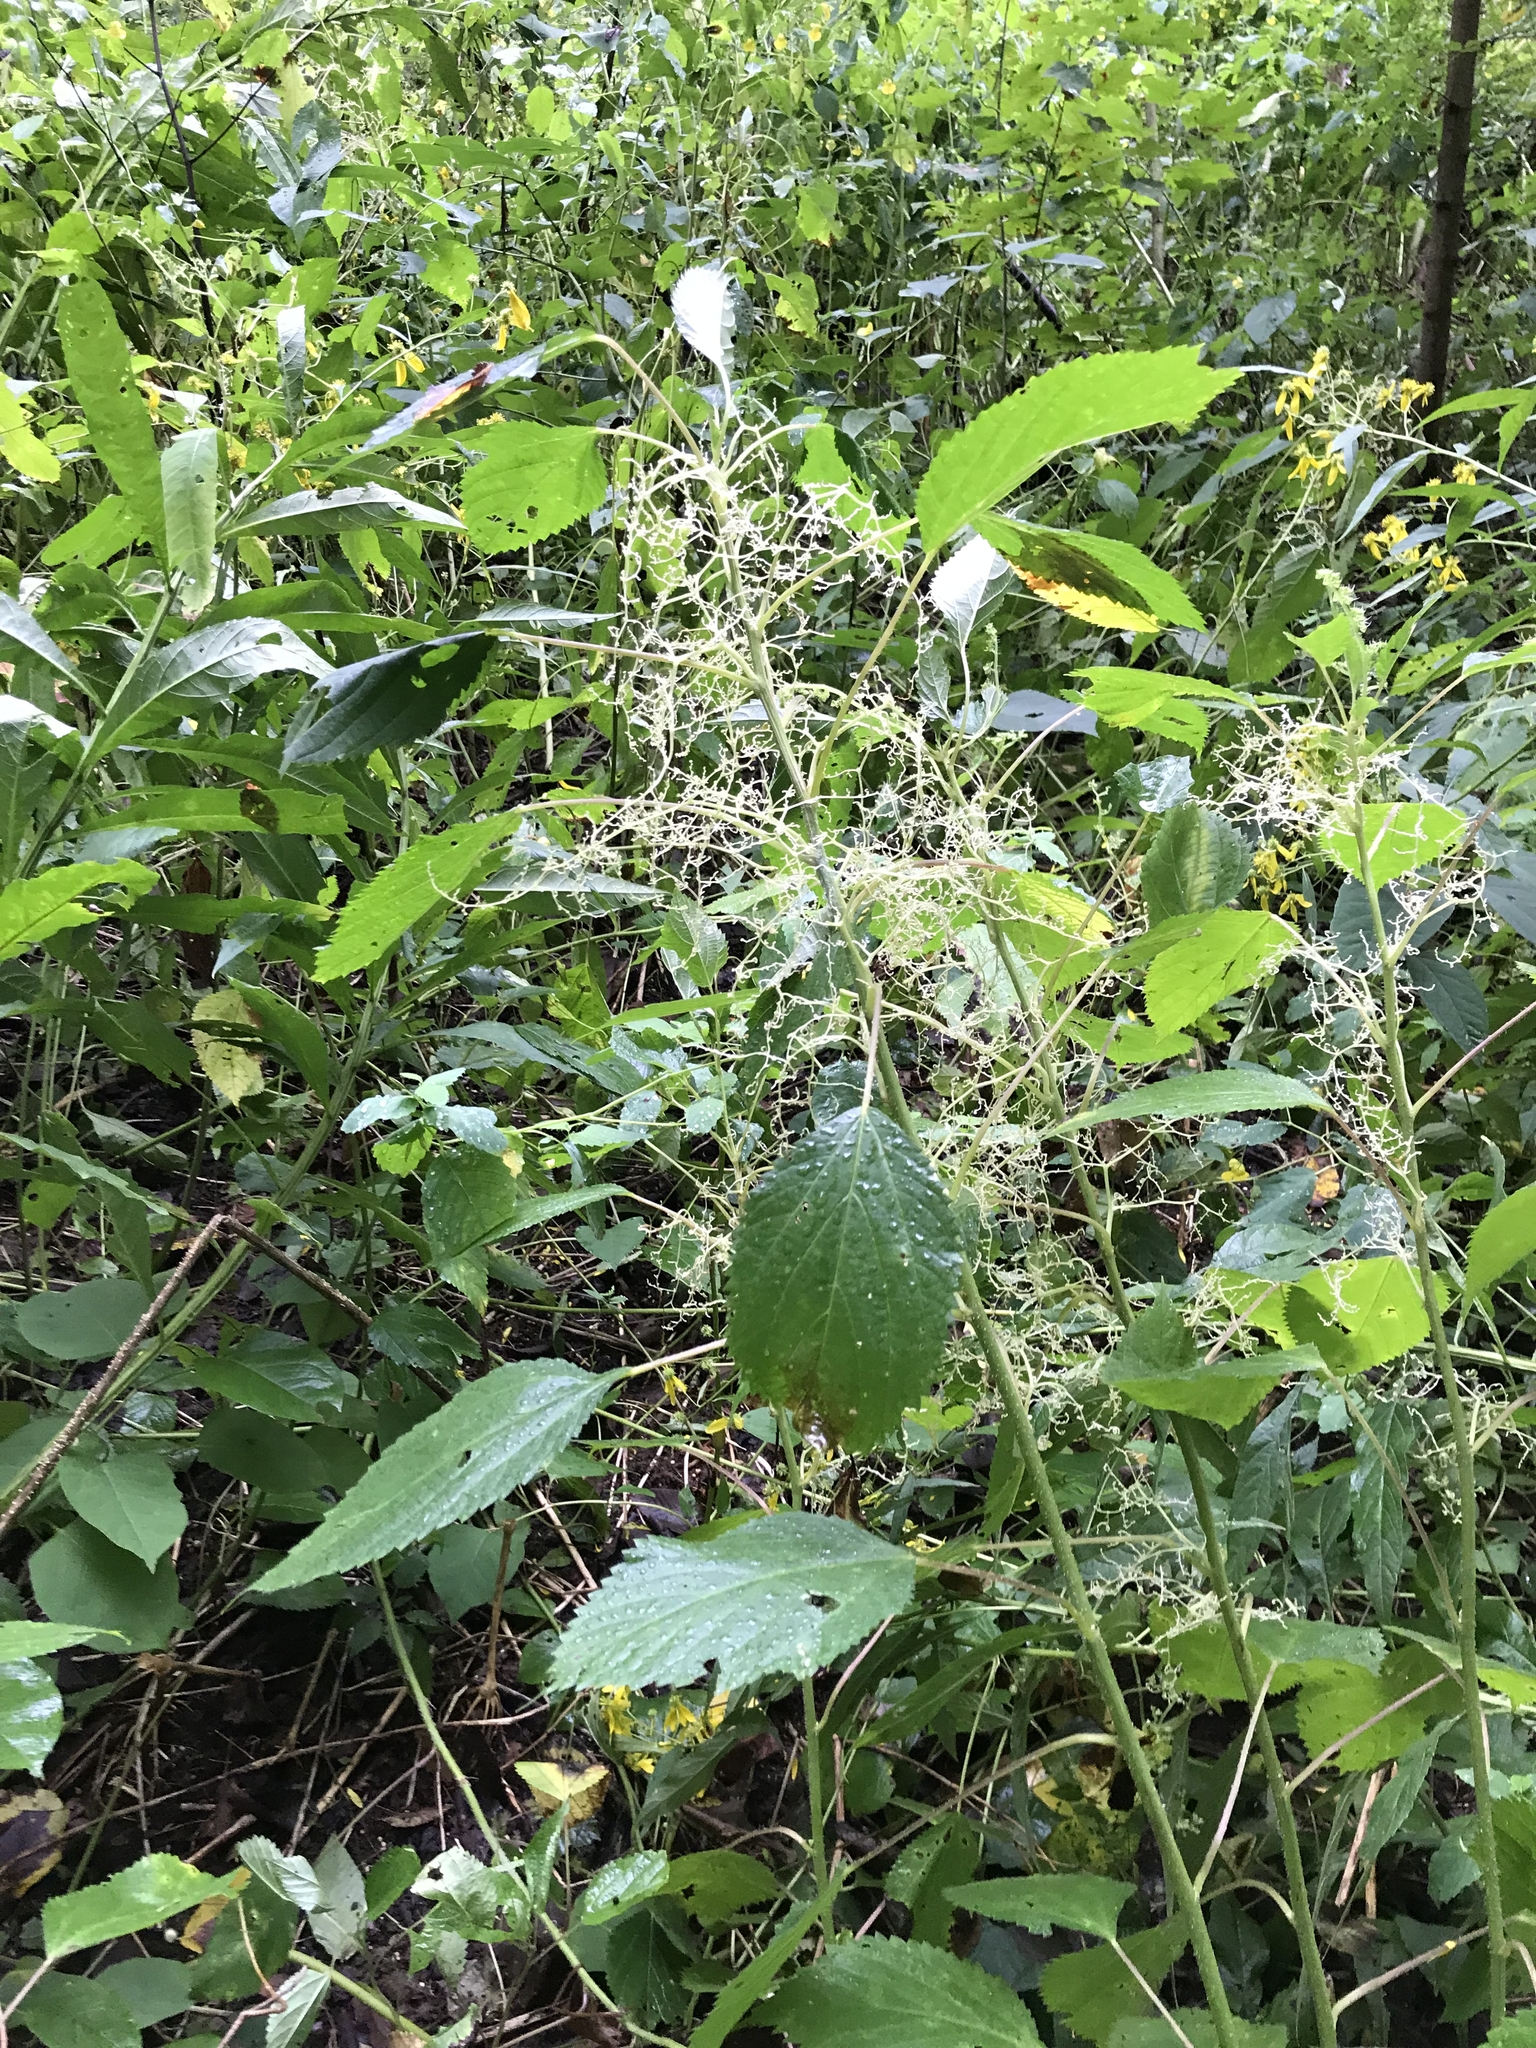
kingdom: Plantae
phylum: Tracheophyta
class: Magnoliopsida
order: Rosales
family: Urticaceae
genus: Laportea
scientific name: Laportea canadensis
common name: Canada nettle
